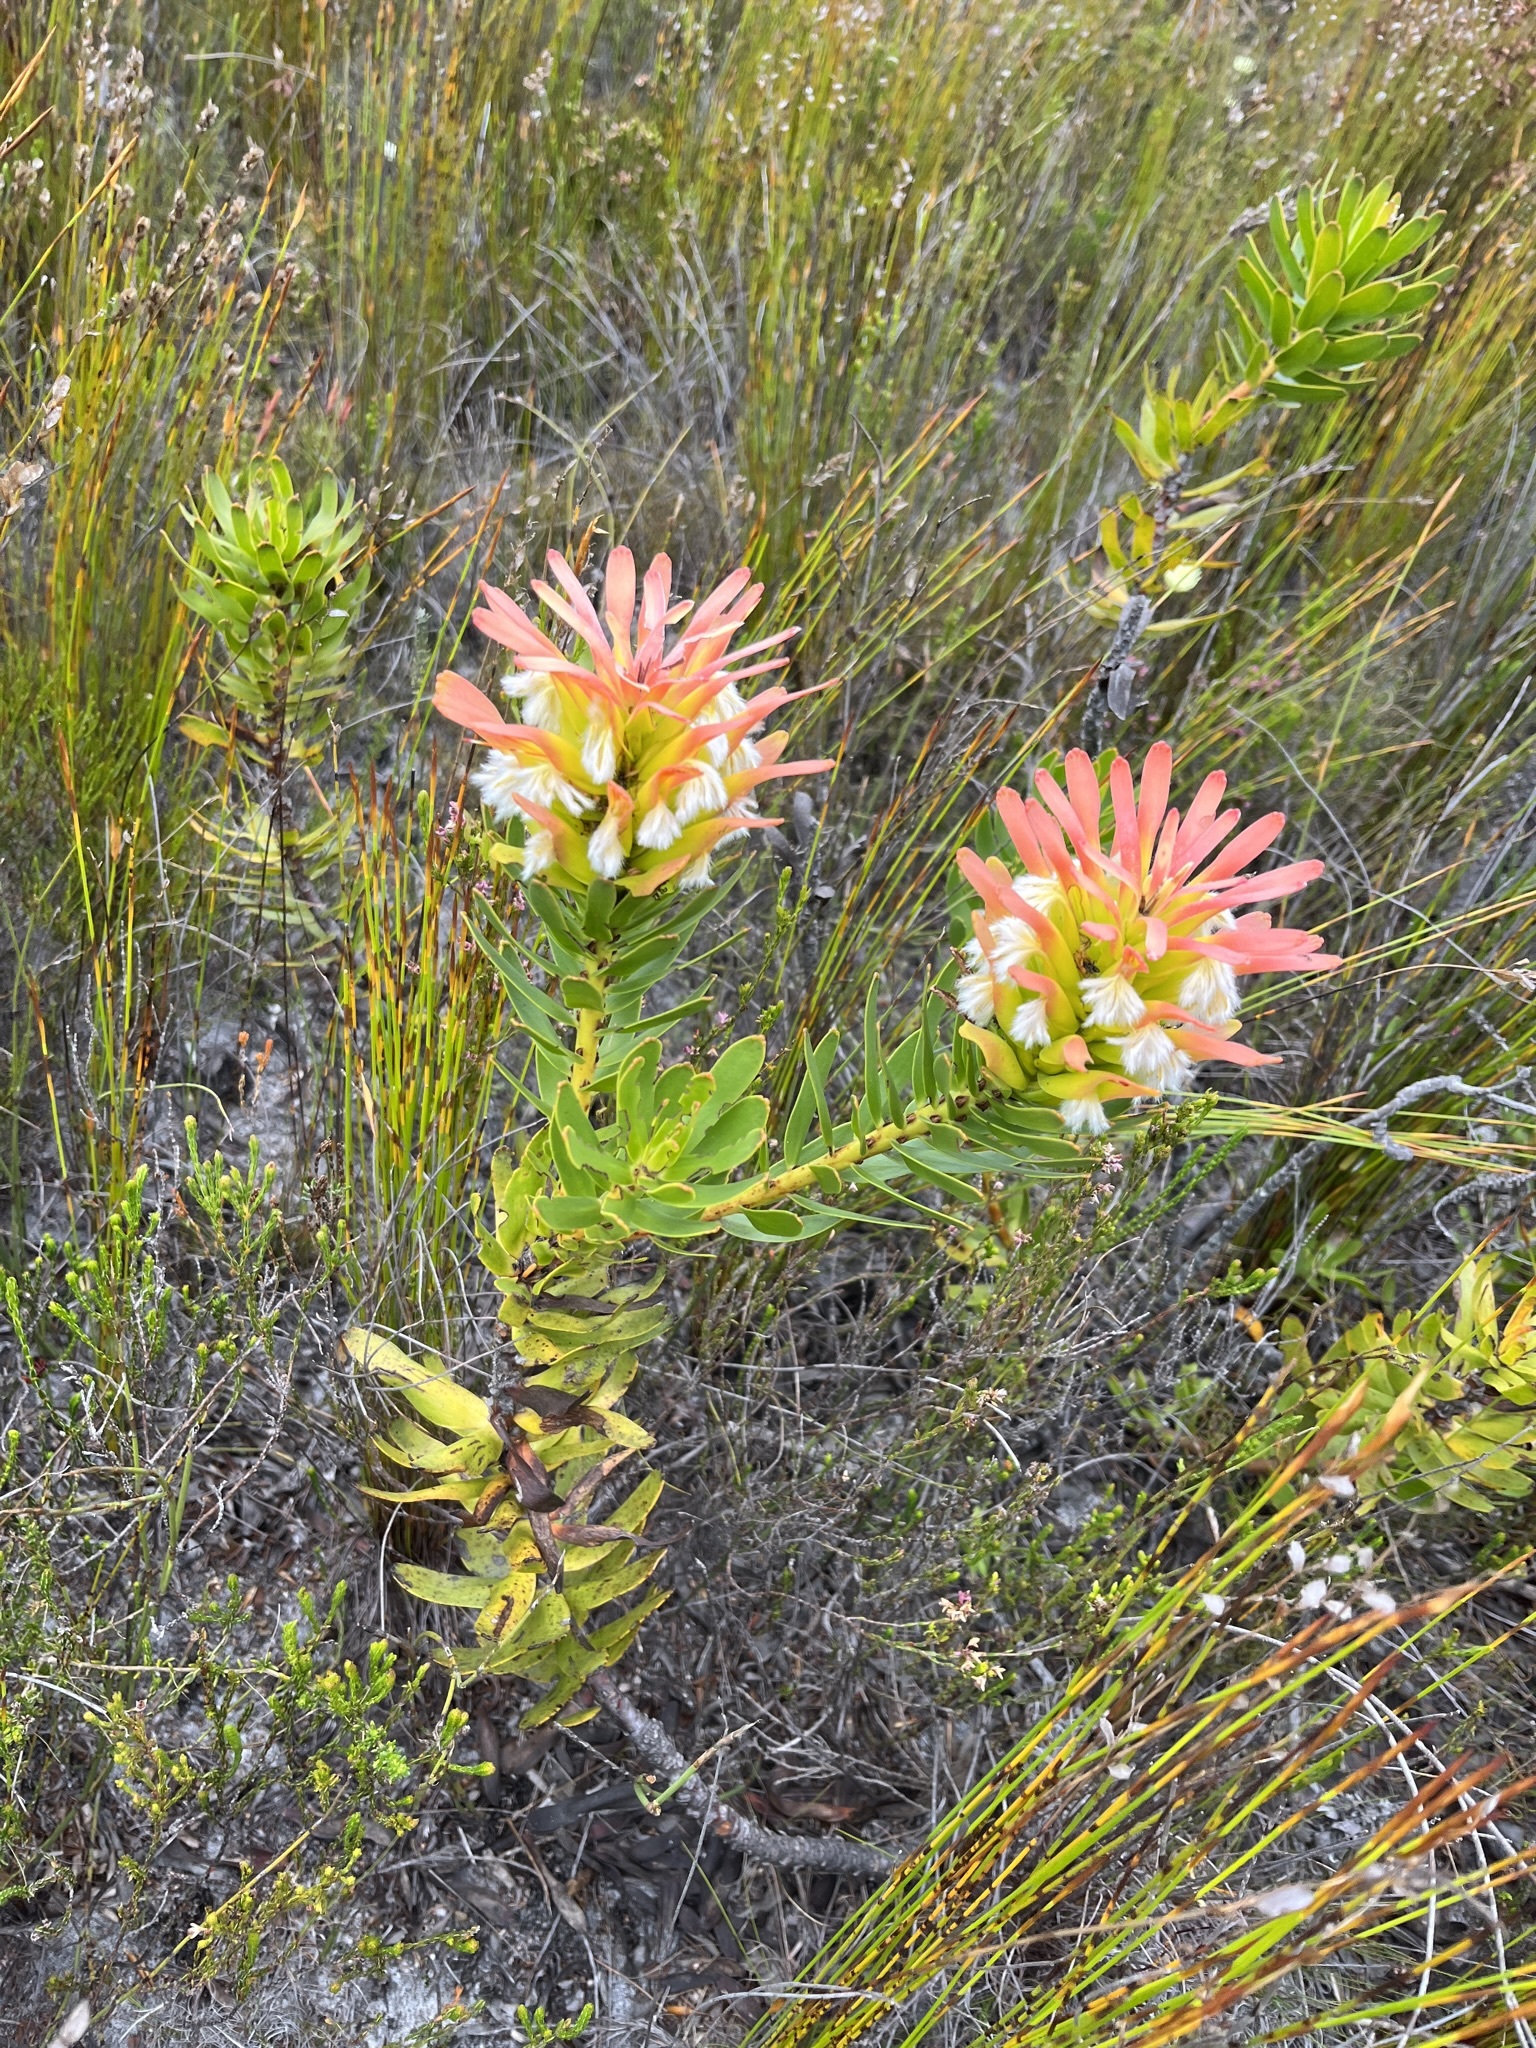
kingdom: Plantae
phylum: Tracheophyta
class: Magnoliopsida
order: Proteales
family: Proteaceae
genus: Mimetes
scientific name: Mimetes cucullatus
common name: Common pagoda
